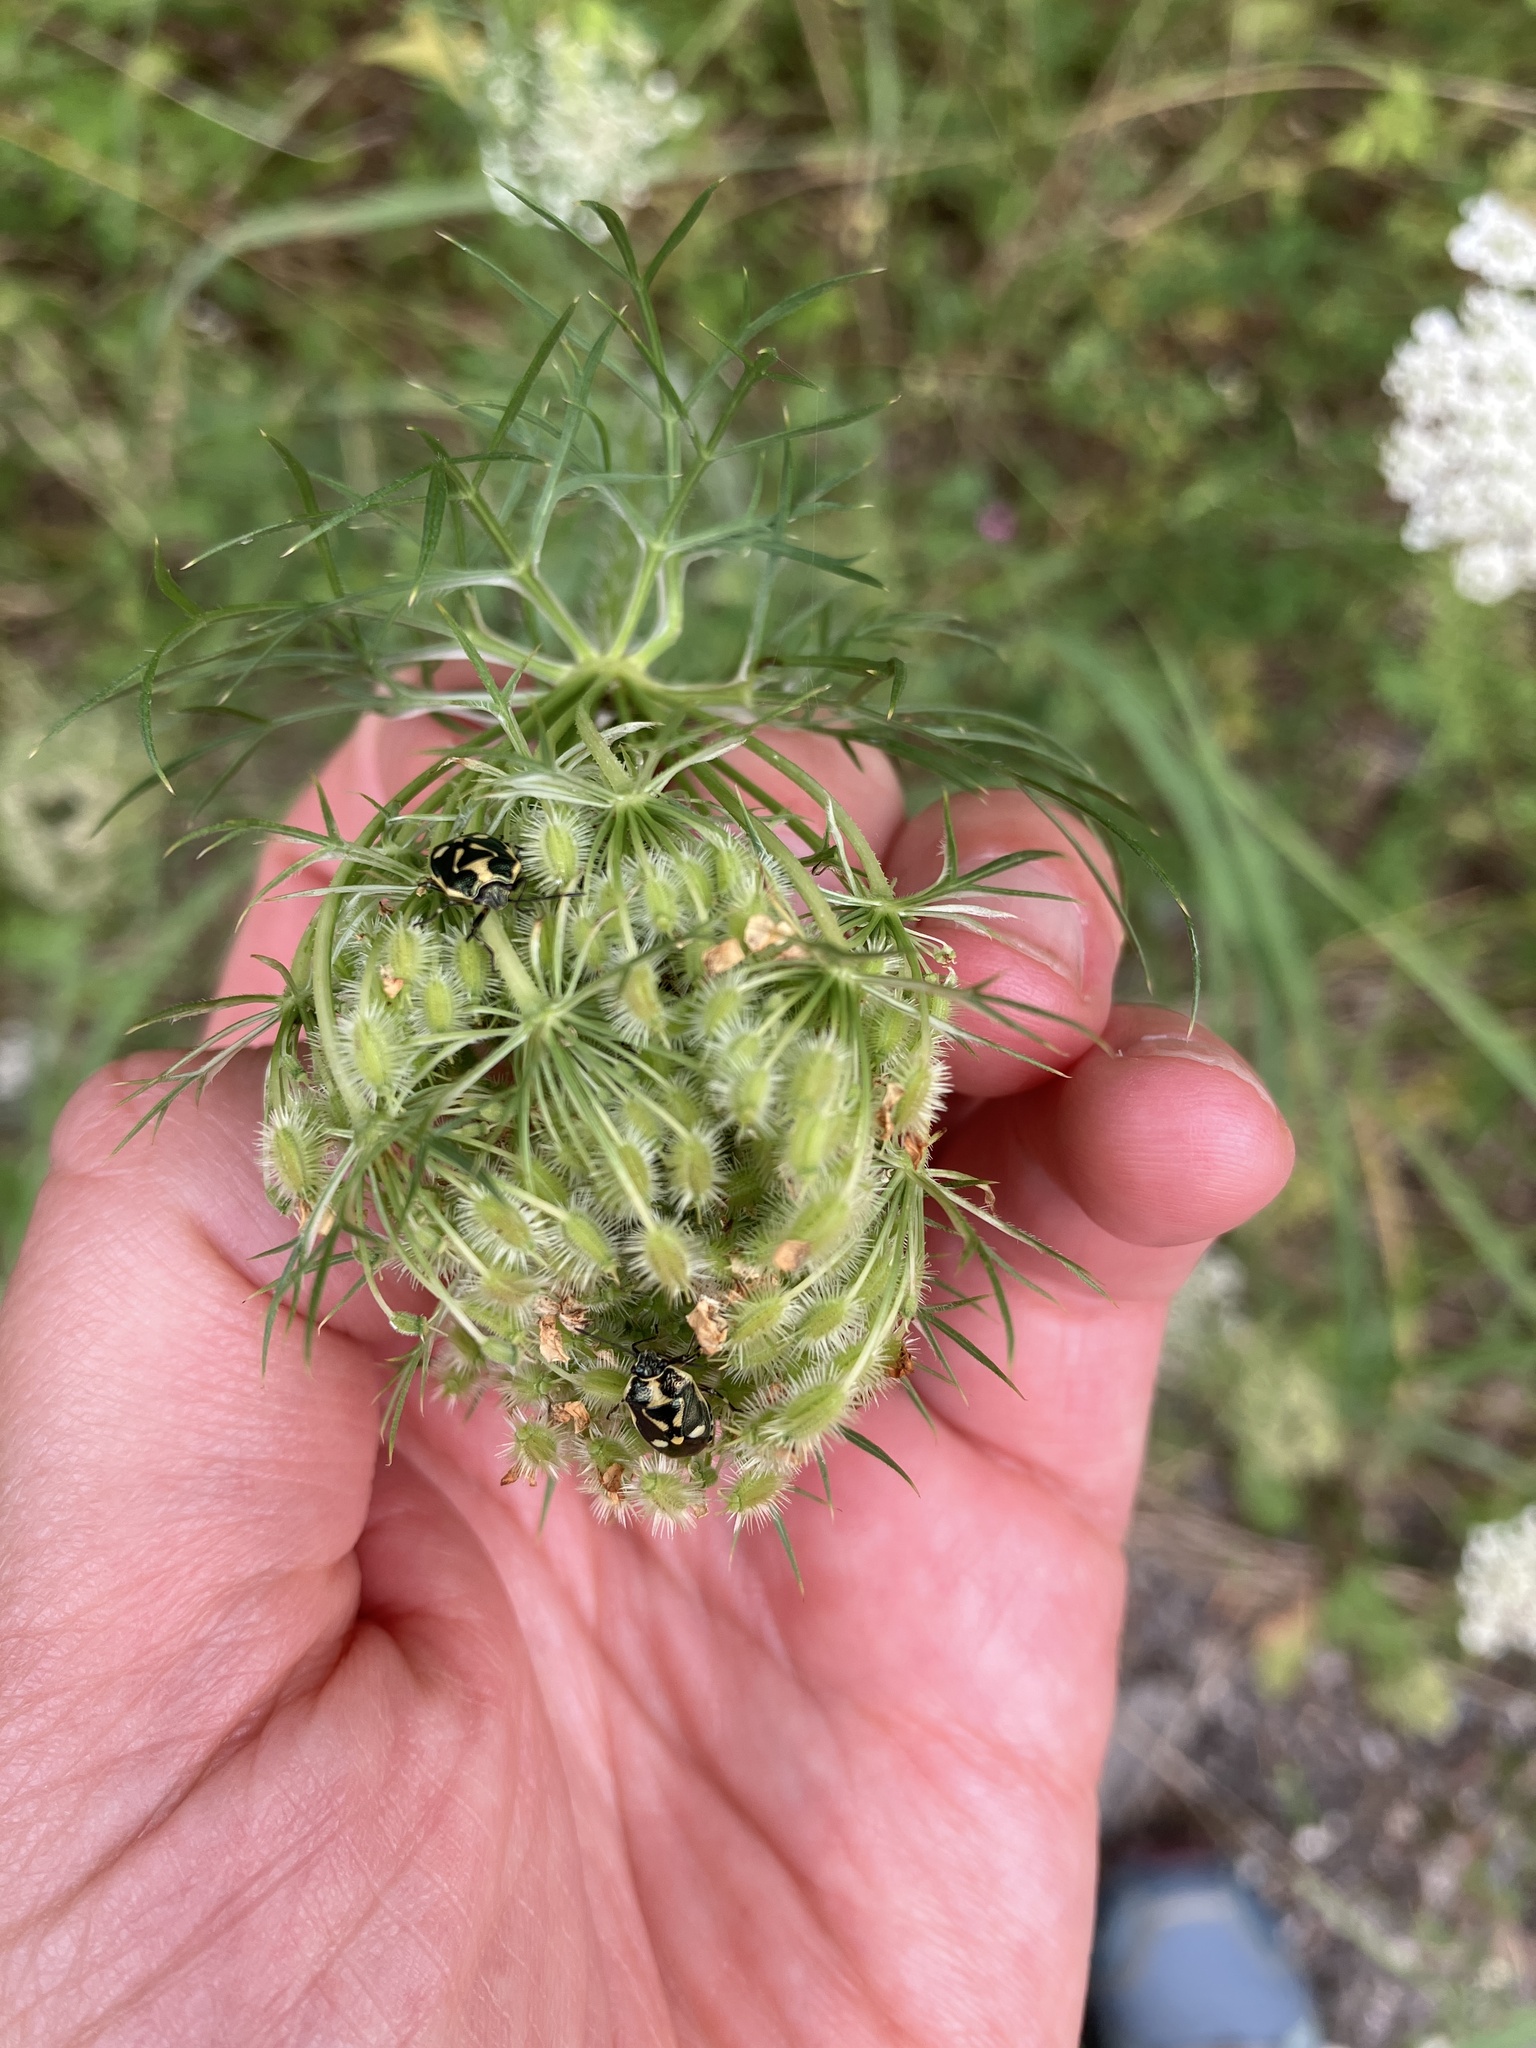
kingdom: Animalia
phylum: Arthropoda
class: Insecta
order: Hemiptera
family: Pentatomidae
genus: Eurydema
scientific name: Eurydema oleracea
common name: Cabbage bug
